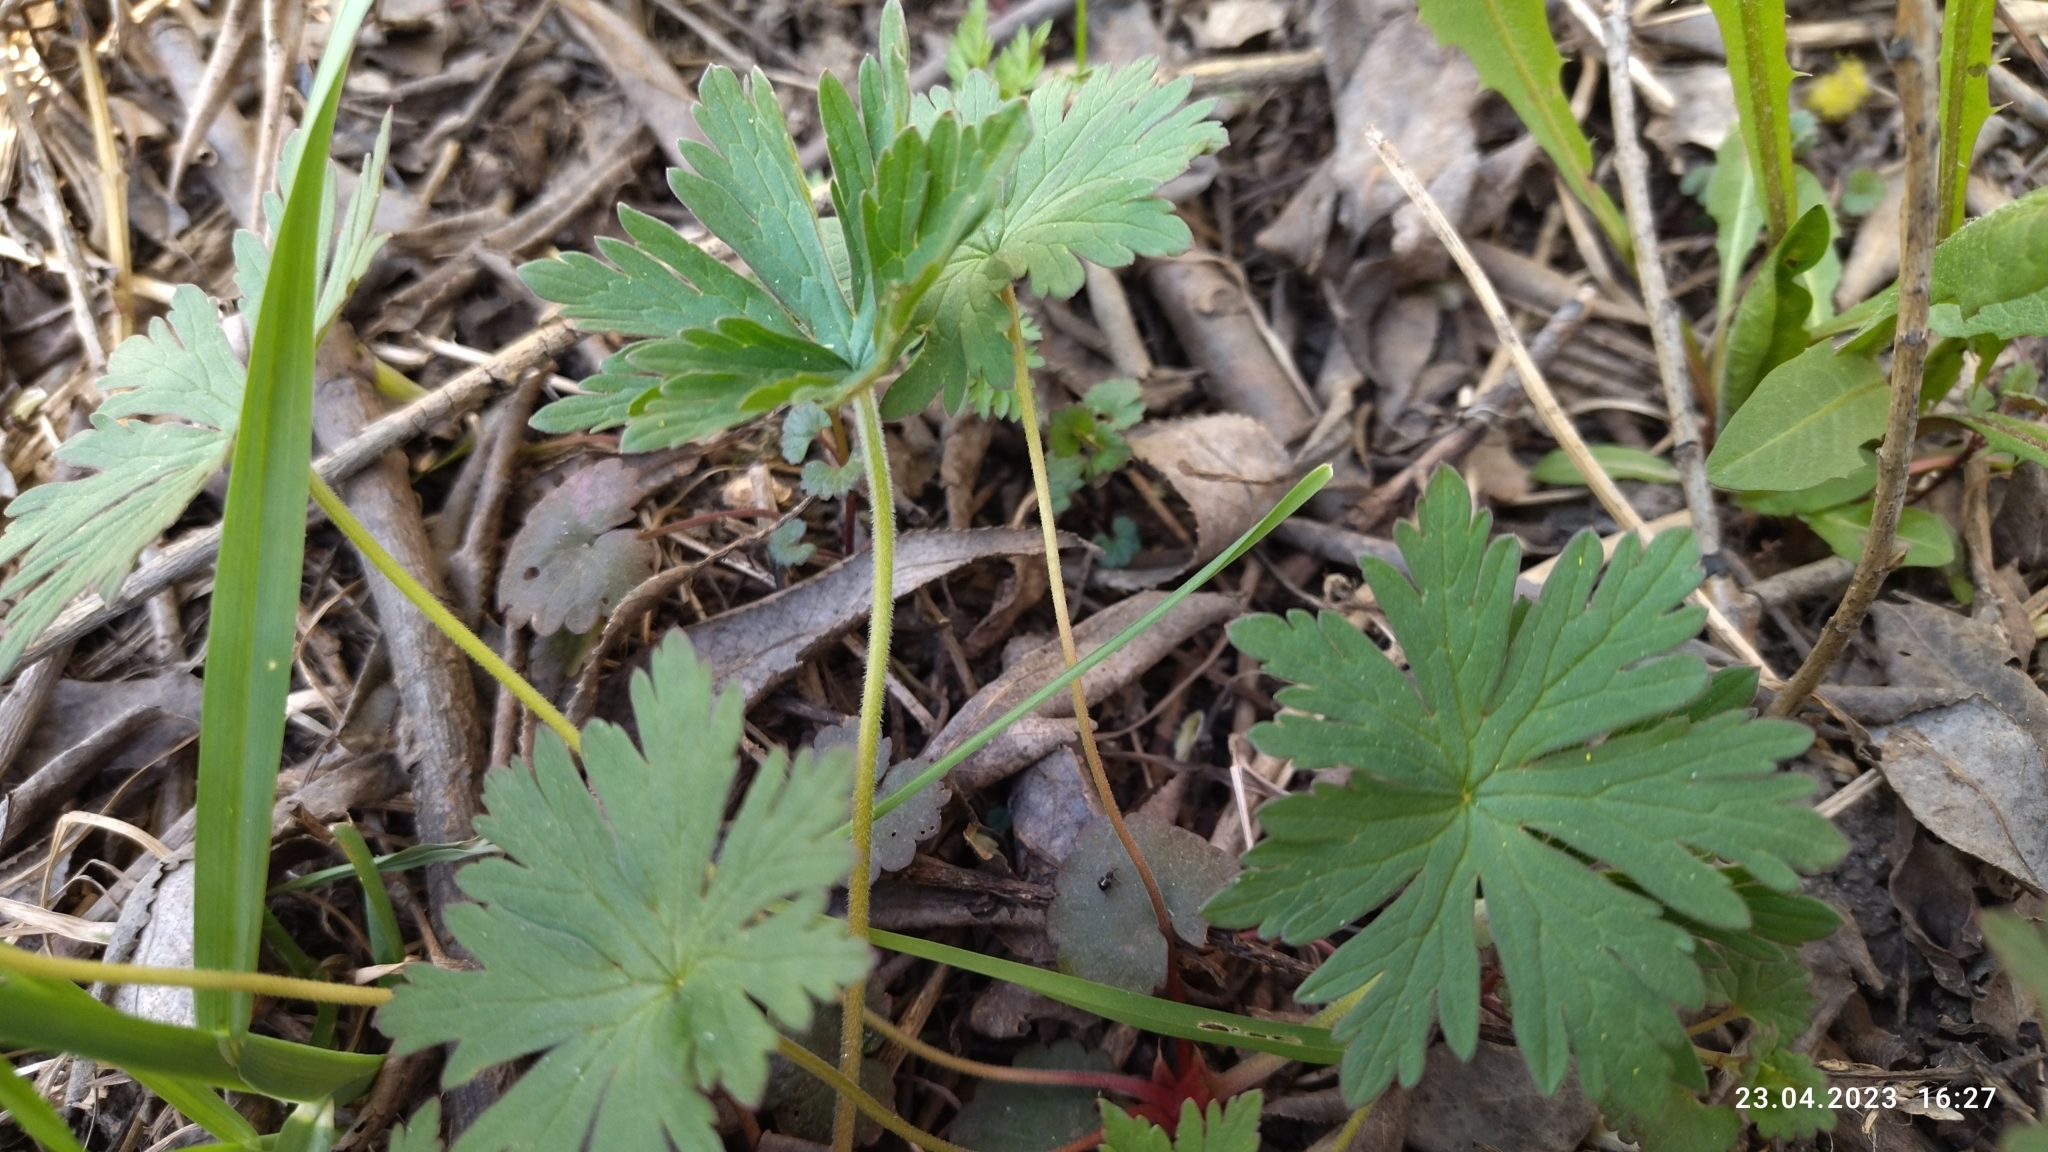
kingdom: Plantae
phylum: Tracheophyta
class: Magnoliopsida
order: Geraniales
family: Geraniaceae
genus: Geranium
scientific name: Geranium sibiricum
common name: Siberian crane's-bill
